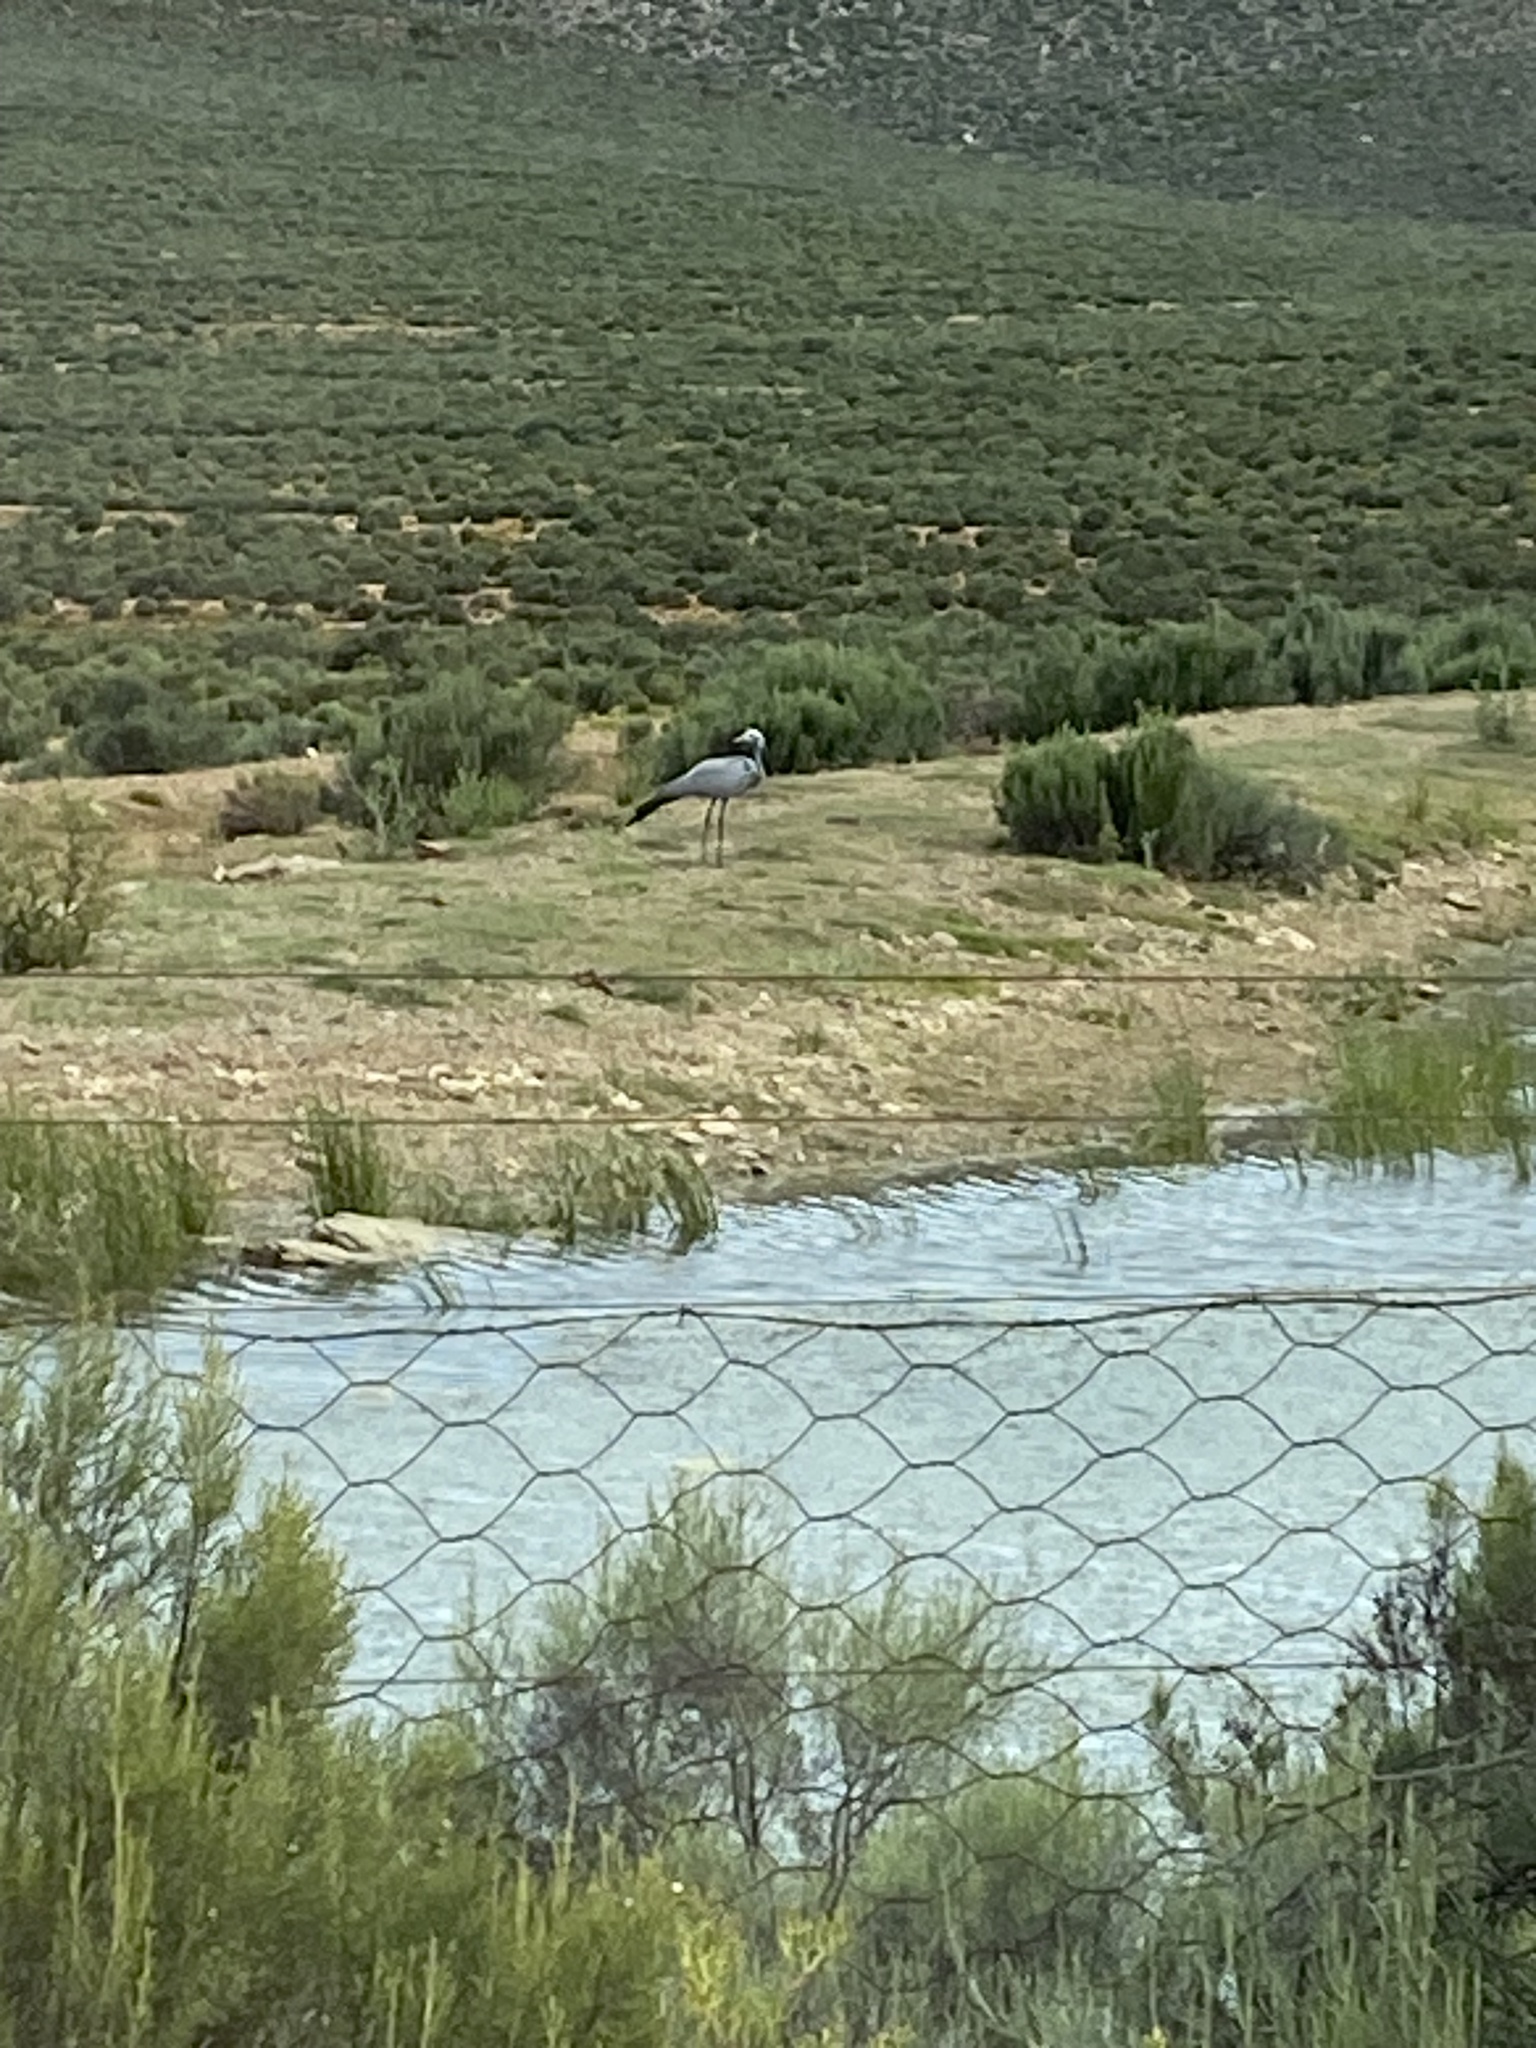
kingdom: Animalia
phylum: Chordata
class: Aves
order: Gruiformes
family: Gruidae
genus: Anthropoides
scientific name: Anthropoides paradiseus
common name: Blue crane
